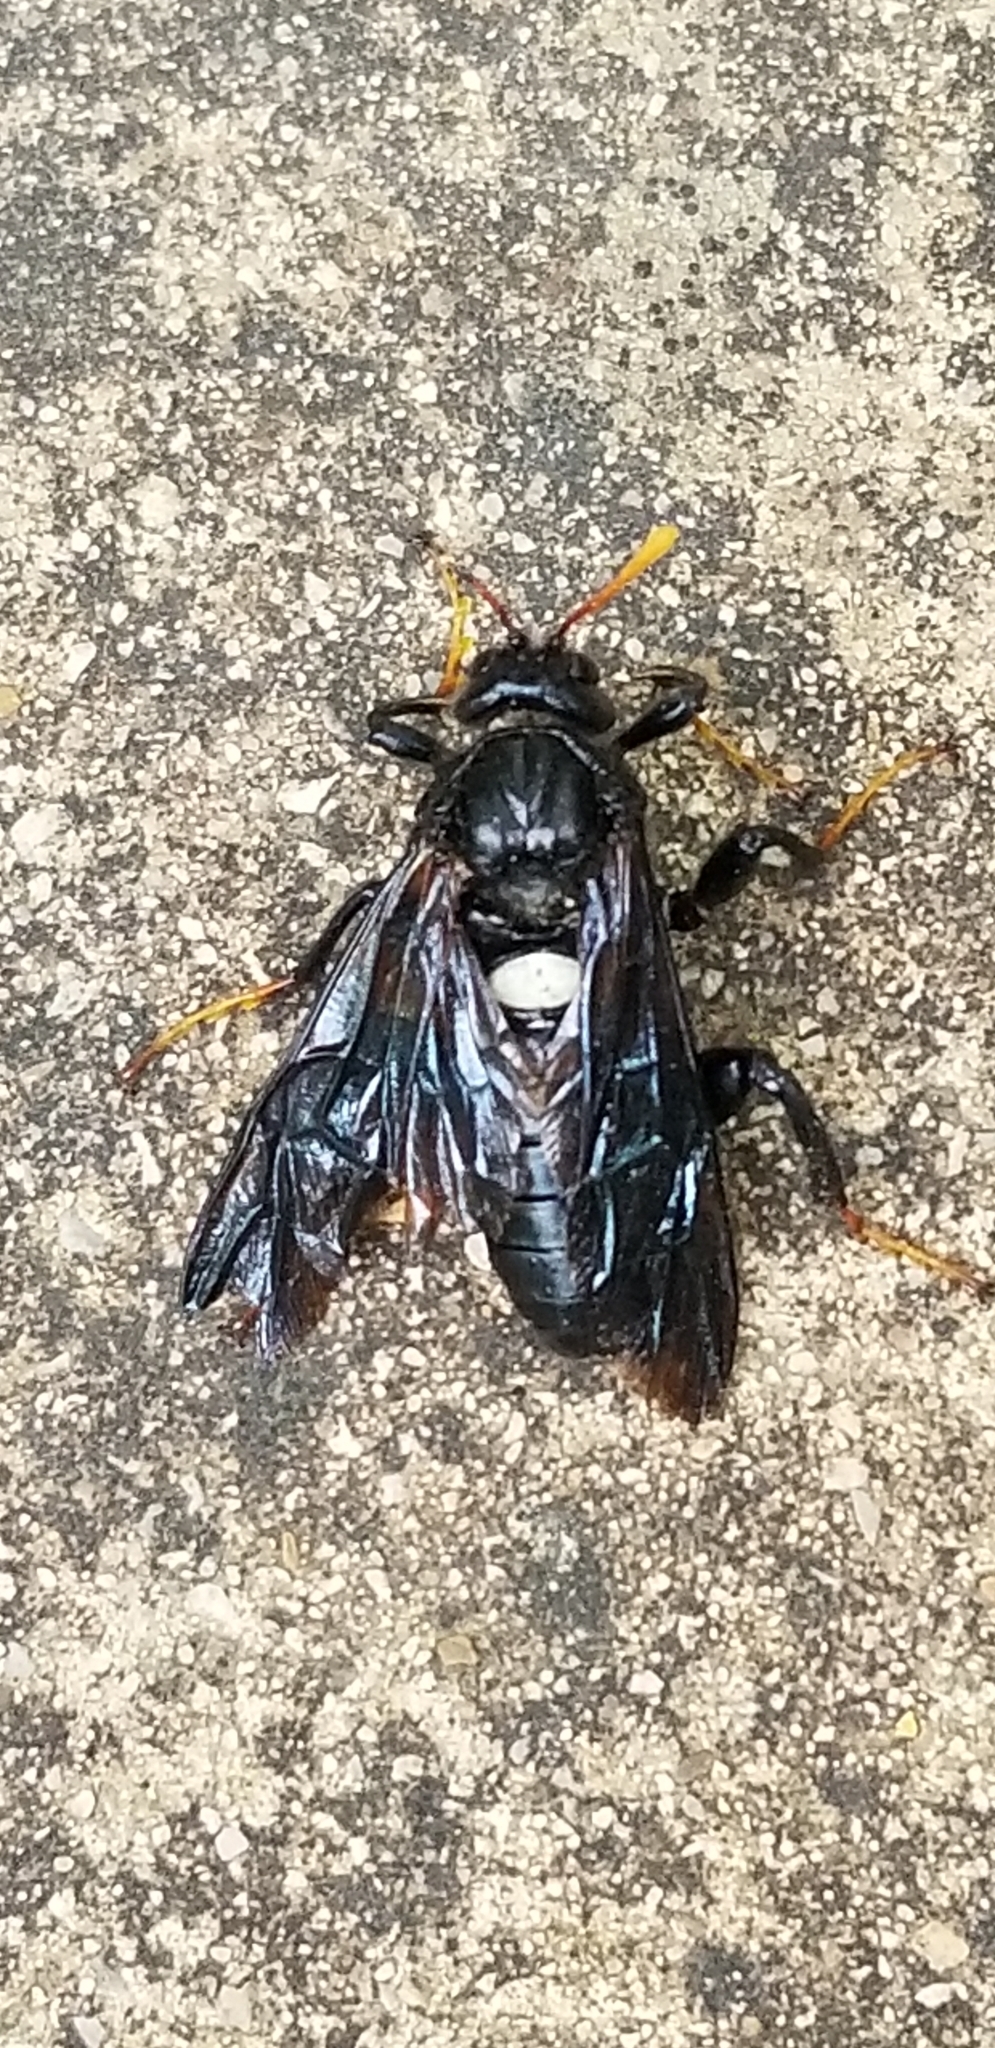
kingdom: Animalia
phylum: Arthropoda
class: Insecta
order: Hymenoptera
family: Cimbicidae
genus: Cimbex
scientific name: Cimbex americana
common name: Elm sawfly
